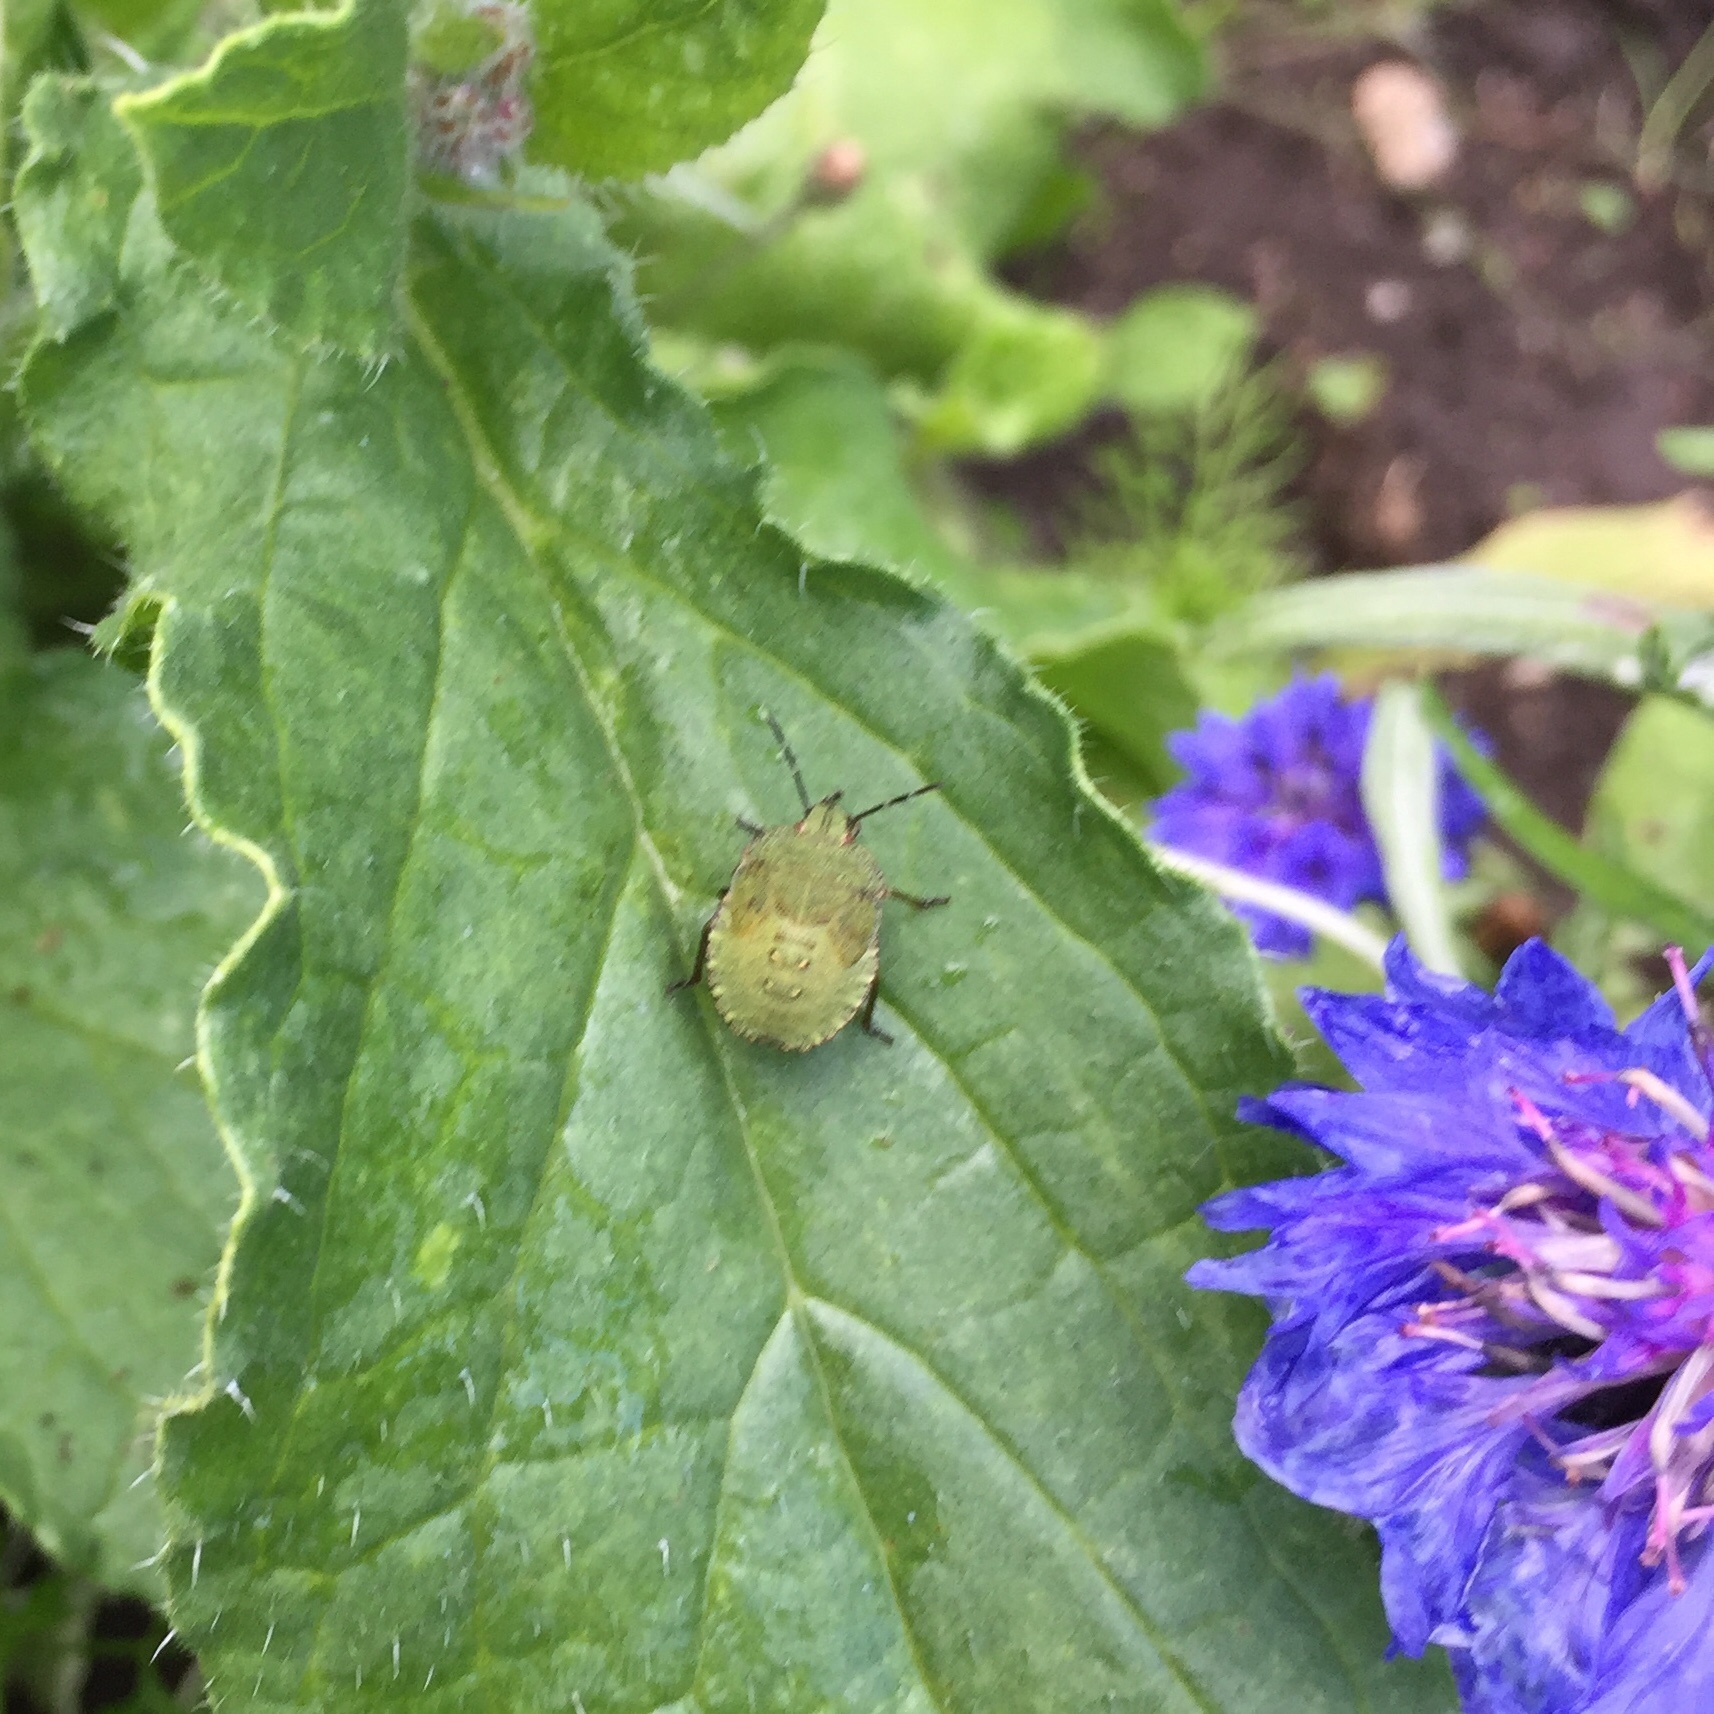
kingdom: Animalia
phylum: Arthropoda
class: Insecta
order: Hemiptera
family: Pentatomidae
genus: Palomena
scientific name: Palomena prasina
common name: Green shieldbug
